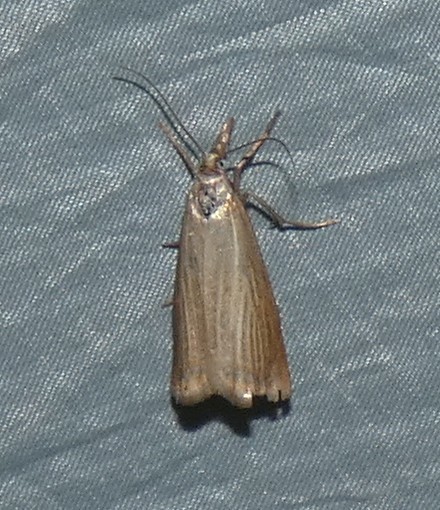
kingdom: Animalia
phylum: Arthropoda
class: Insecta
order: Lepidoptera
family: Crambidae
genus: Chrysoteuchia
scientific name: Chrysoteuchia culmella
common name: Garden grass-veneer
